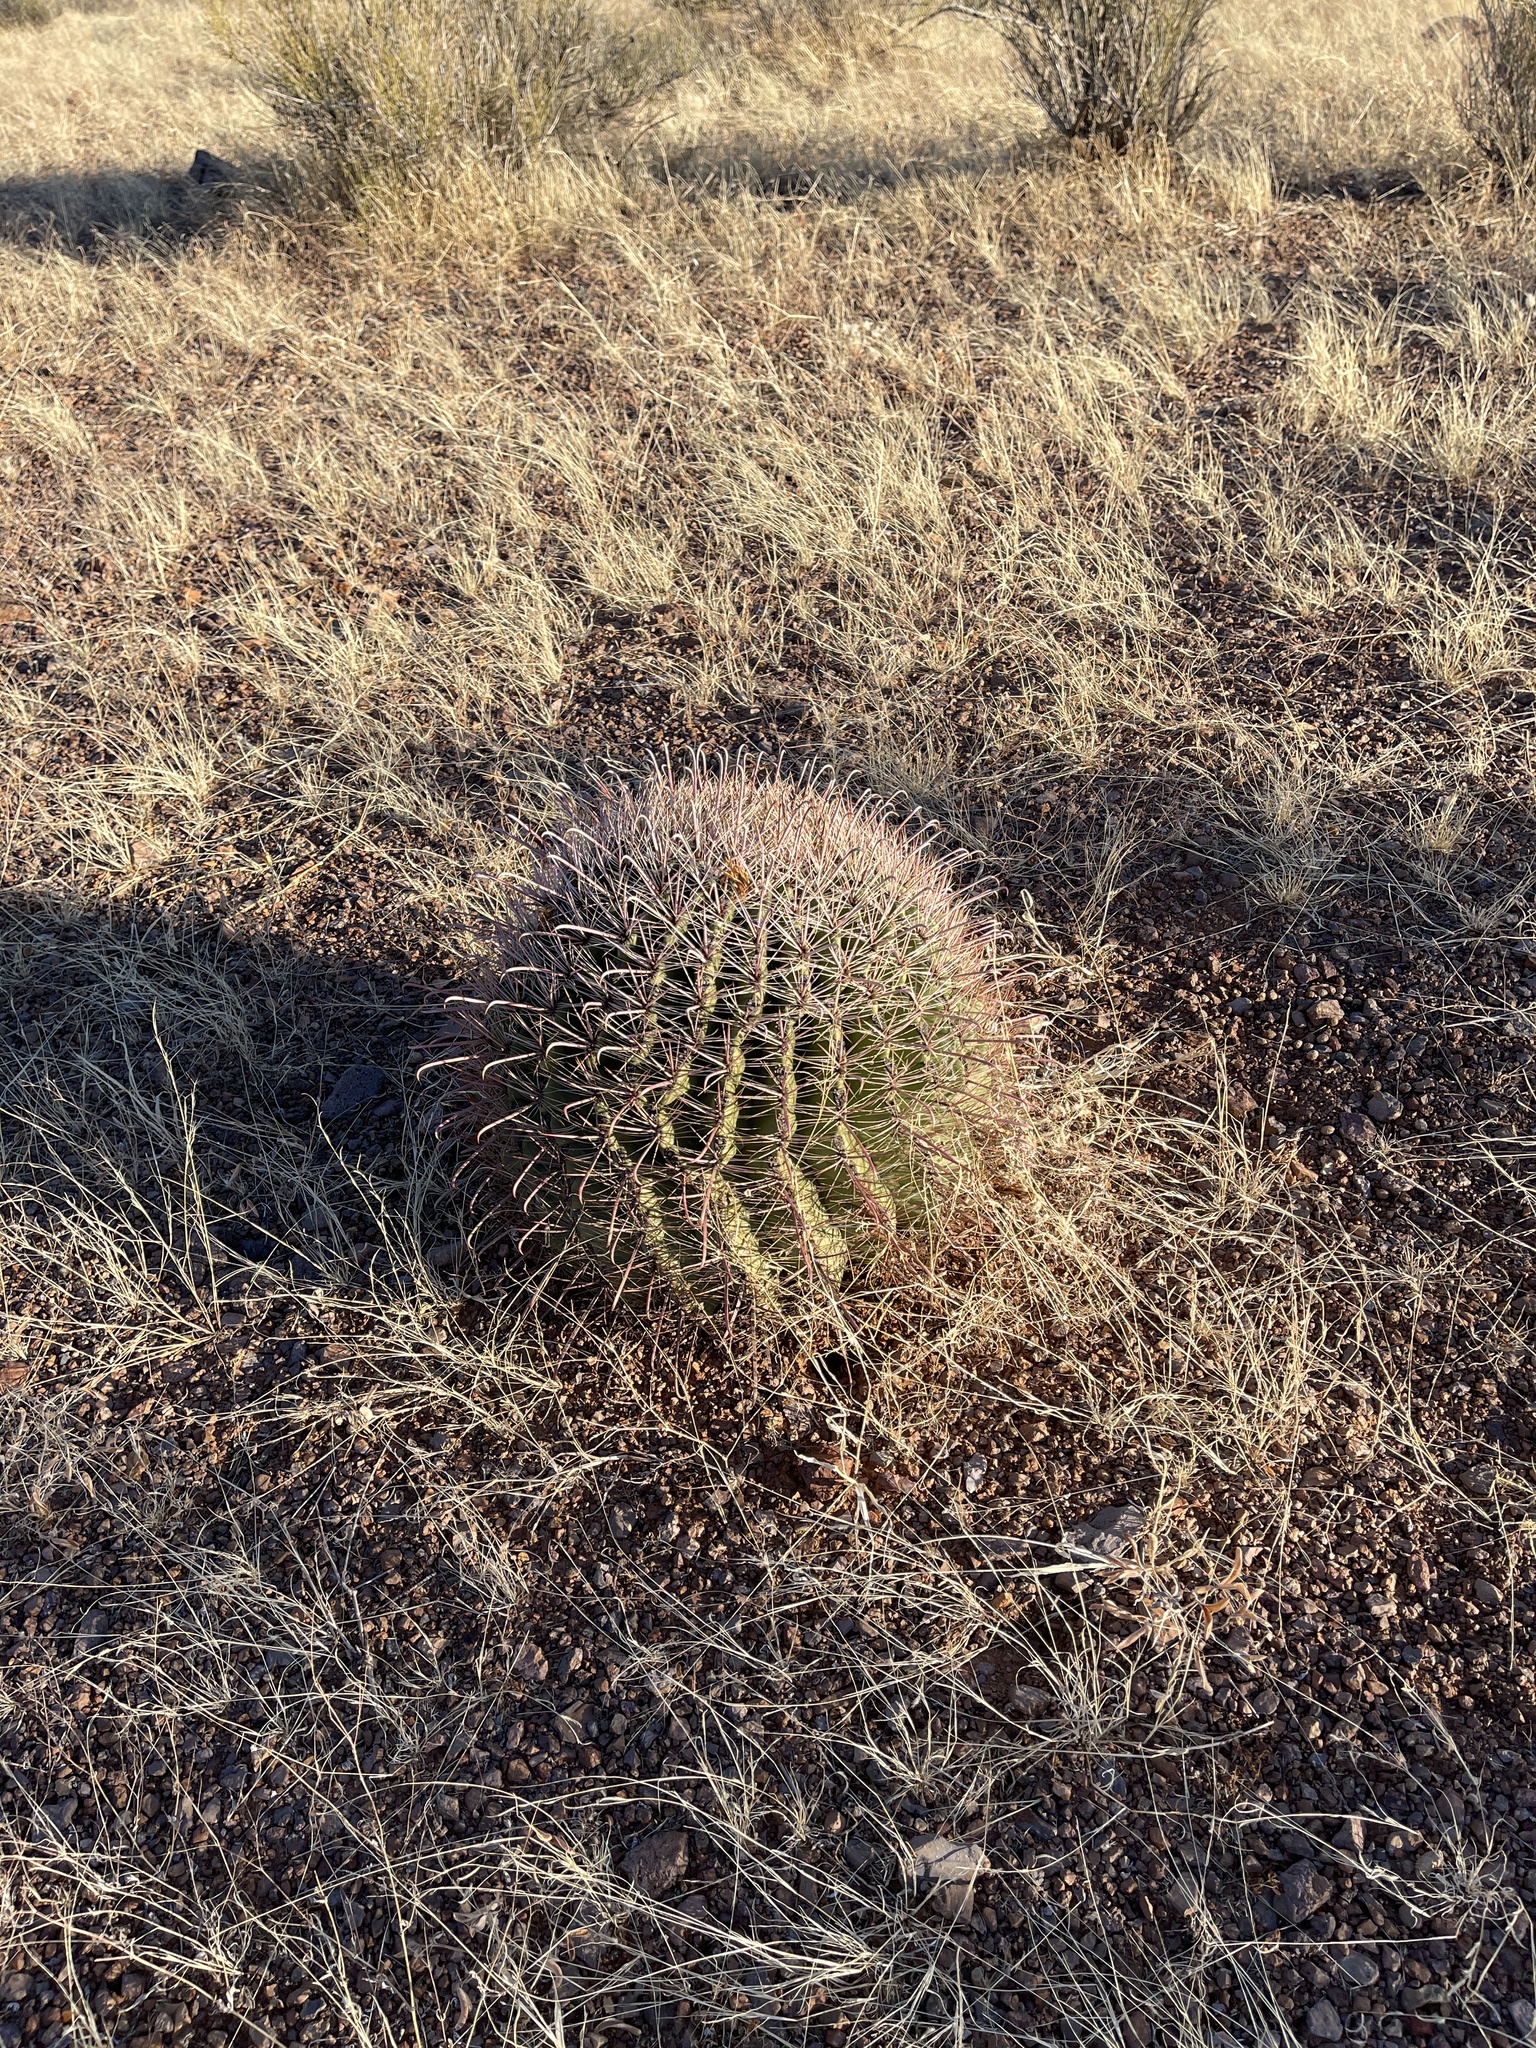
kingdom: Plantae
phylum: Tracheophyta
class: Magnoliopsida
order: Caryophyllales
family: Cactaceae
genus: Ferocactus
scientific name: Ferocactus wislizeni
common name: Candy barrel cactus
